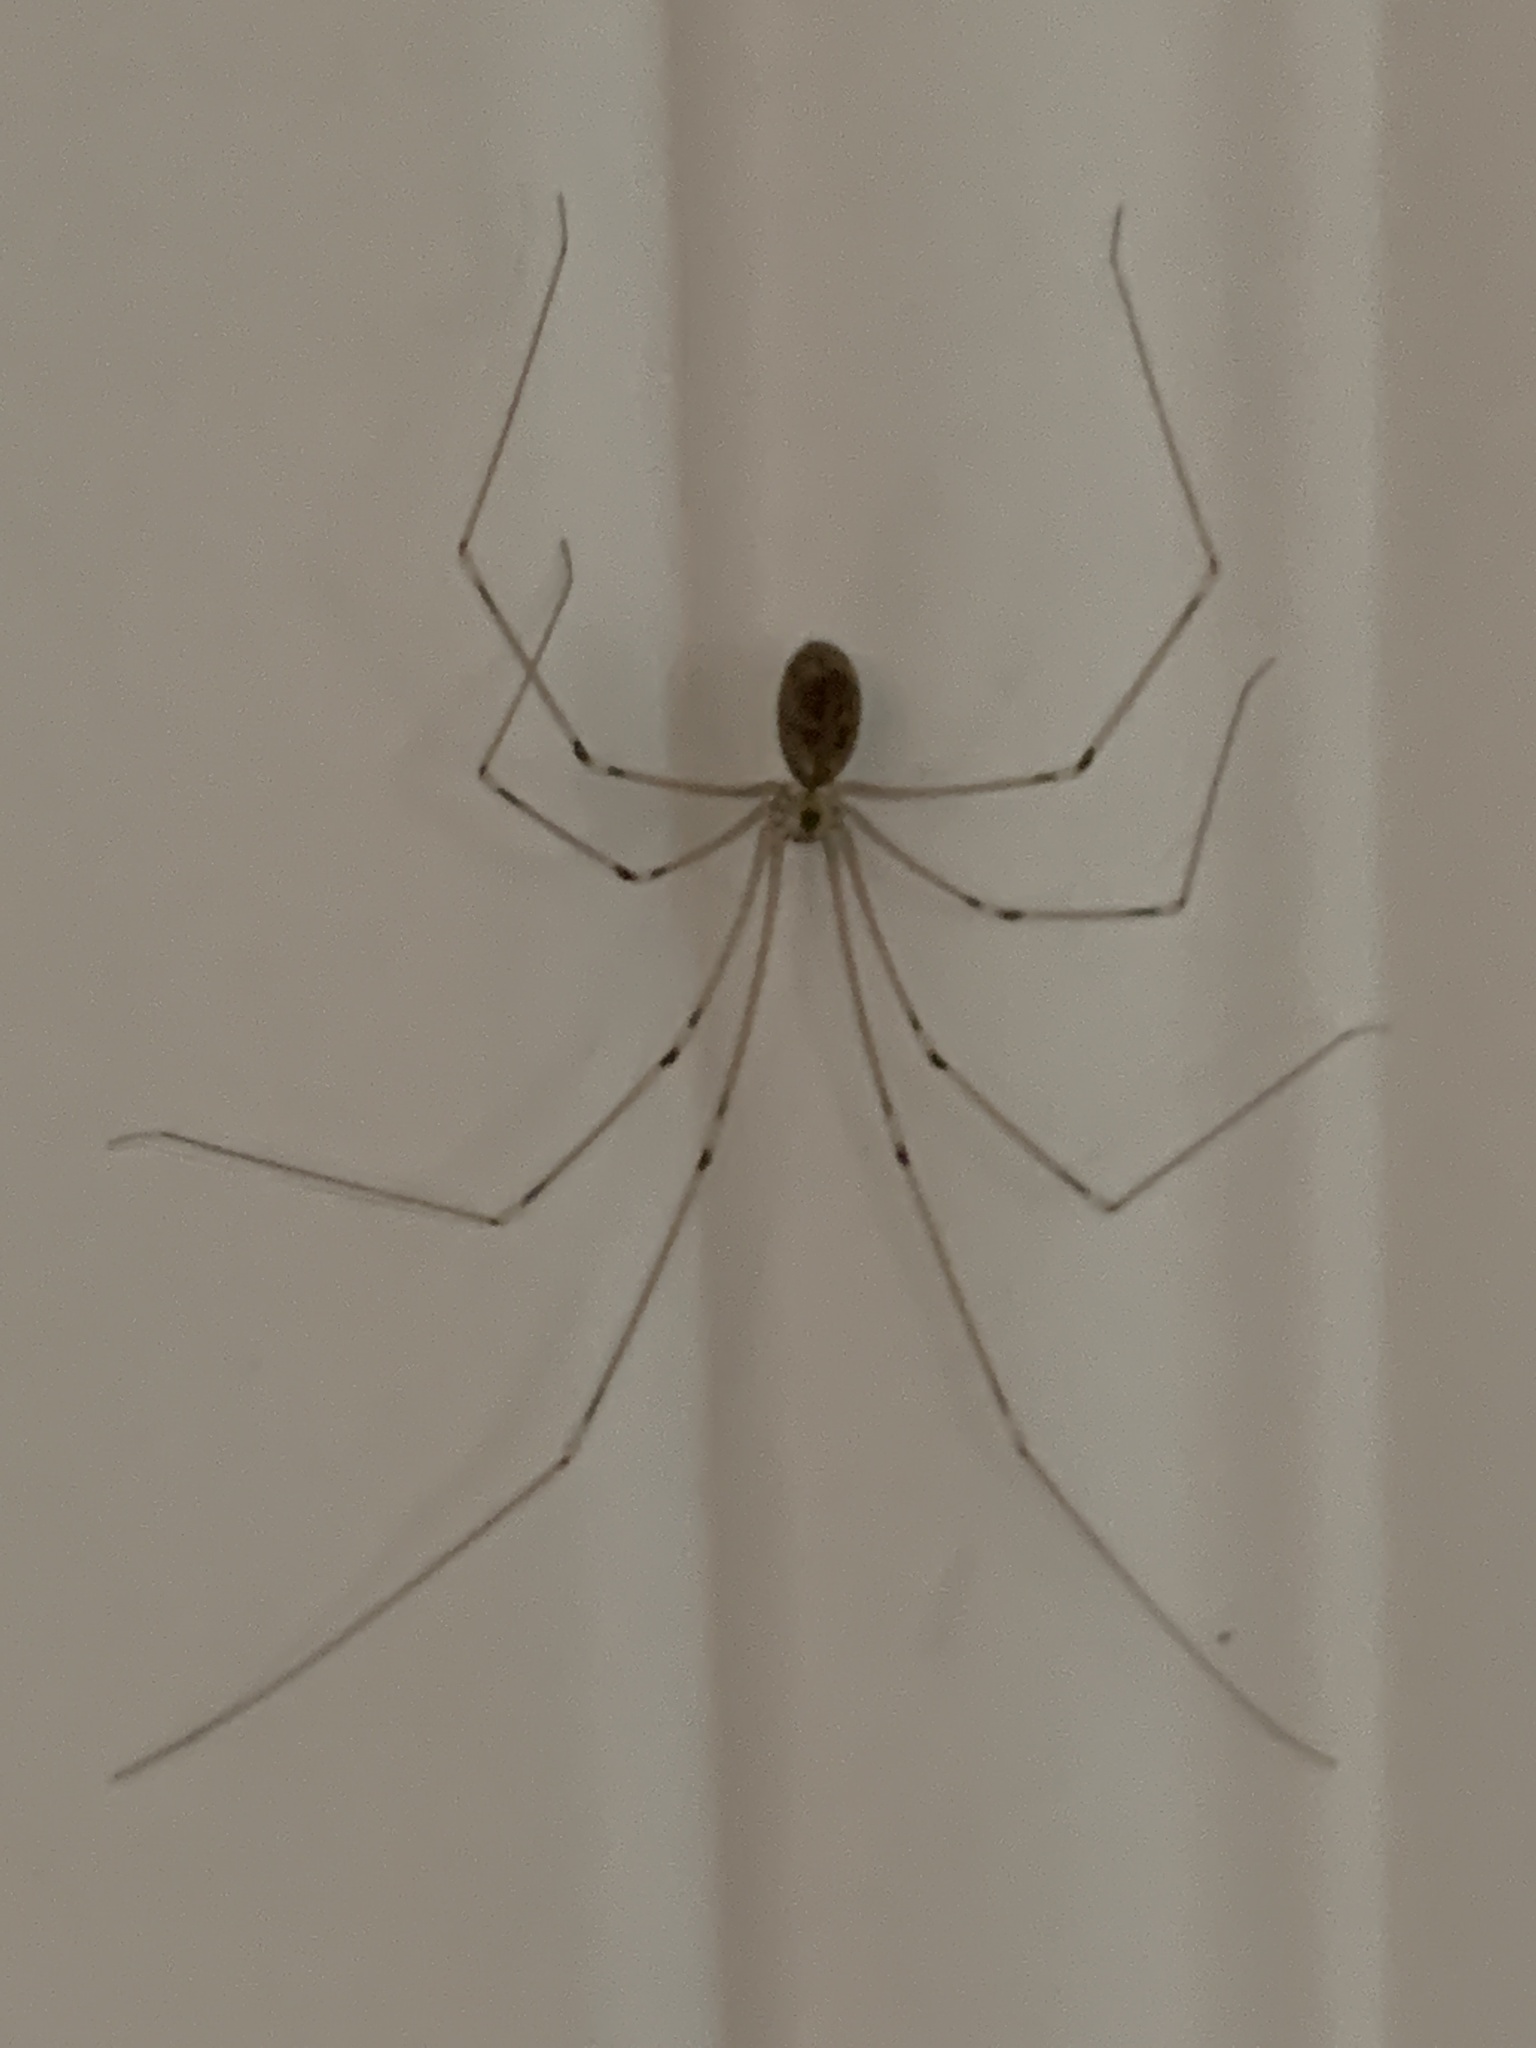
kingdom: Animalia
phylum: Arthropoda
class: Arachnida
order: Araneae
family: Pholcidae
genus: Pholcus
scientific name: Pholcus phalangioides
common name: Longbodied cellar spider
